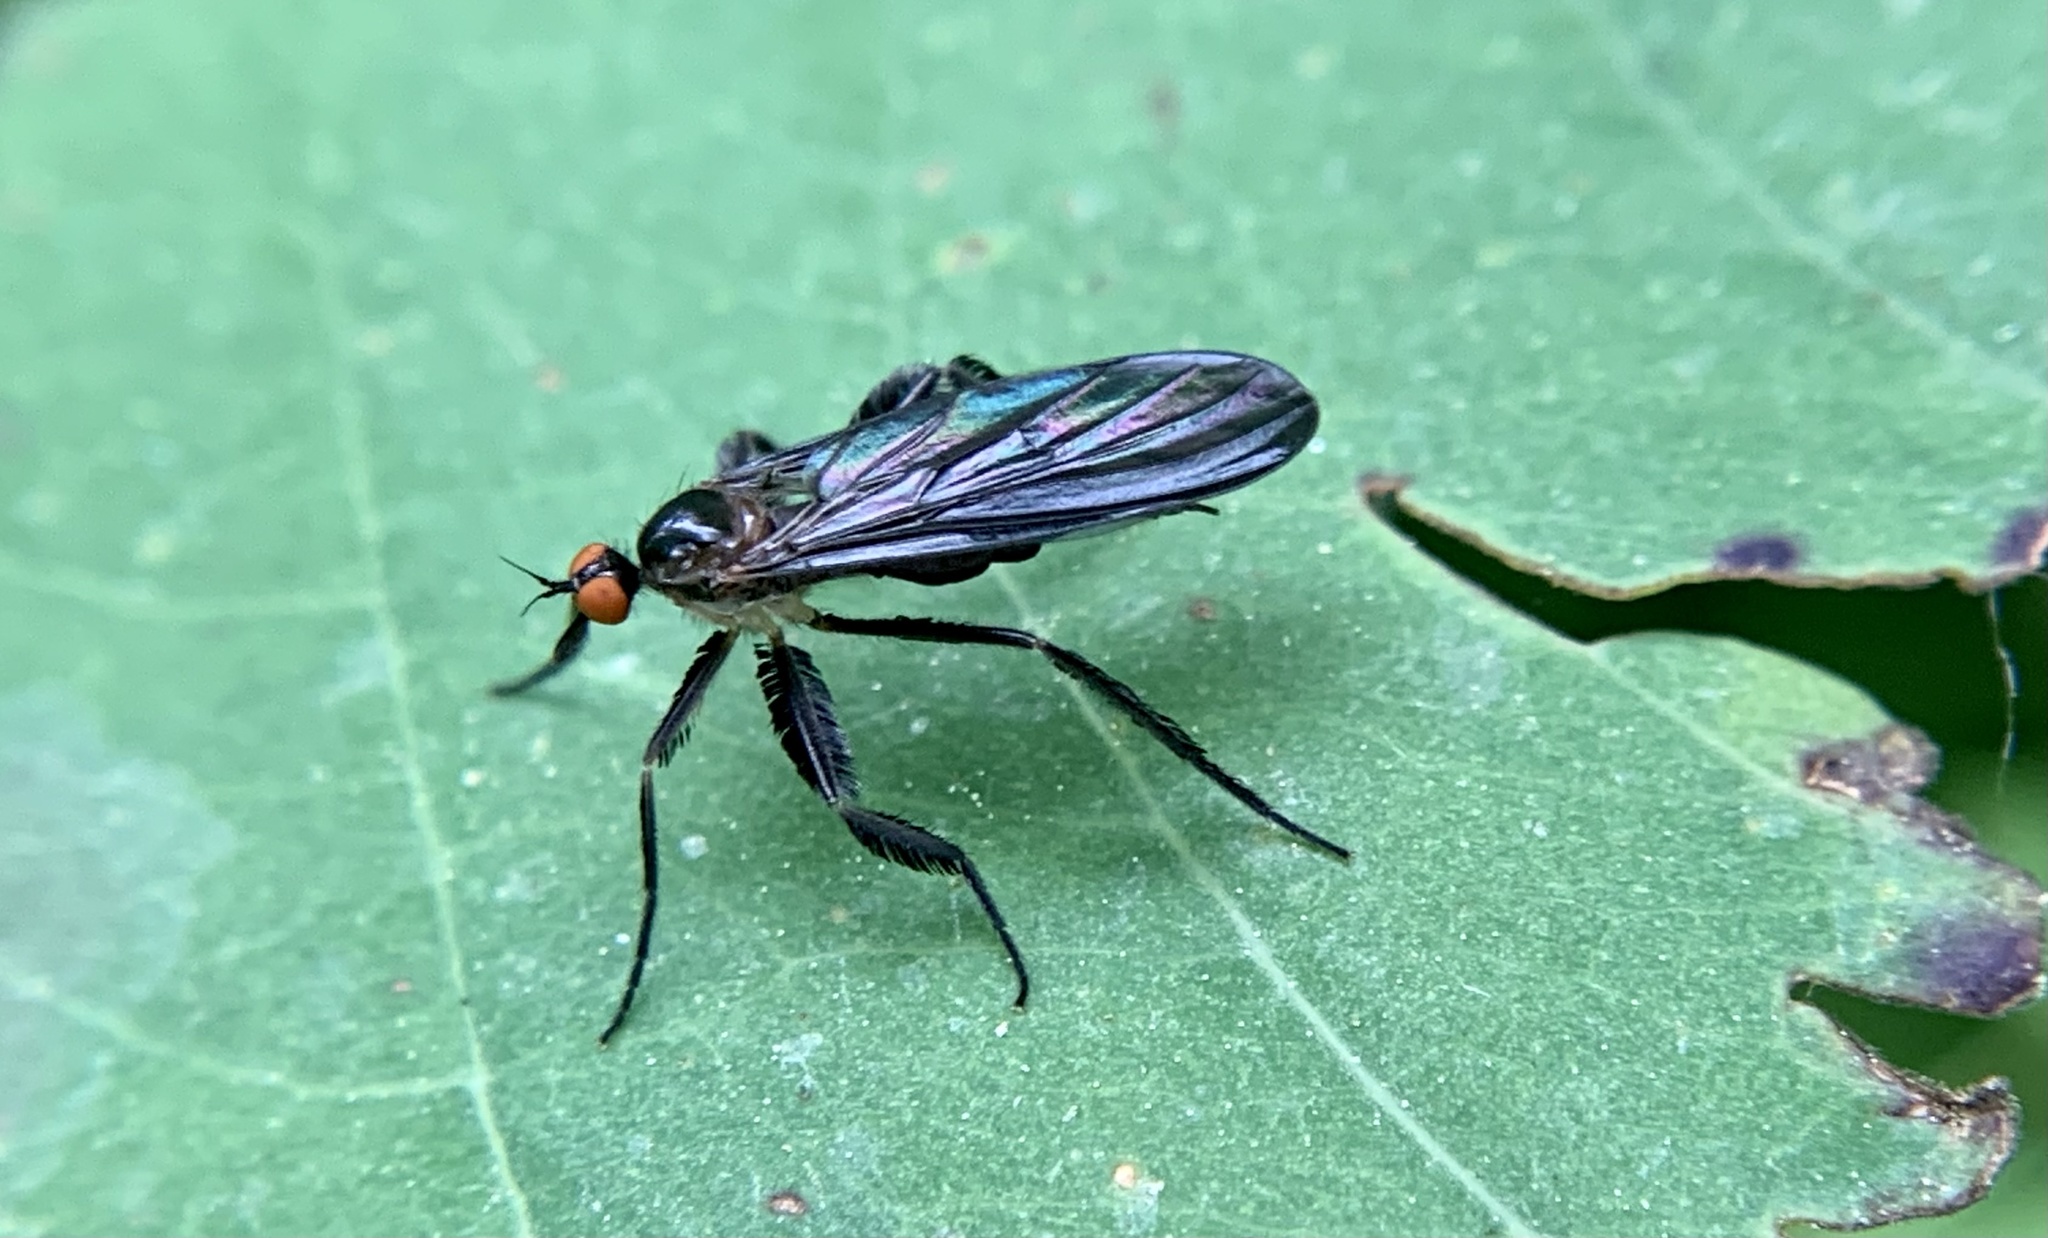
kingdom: Animalia
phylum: Arthropoda
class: Insecta
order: Diptera
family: Empididae
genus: Rhamphomyia
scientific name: Rhamphomyia longicauda
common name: Long-tailed dance fly
